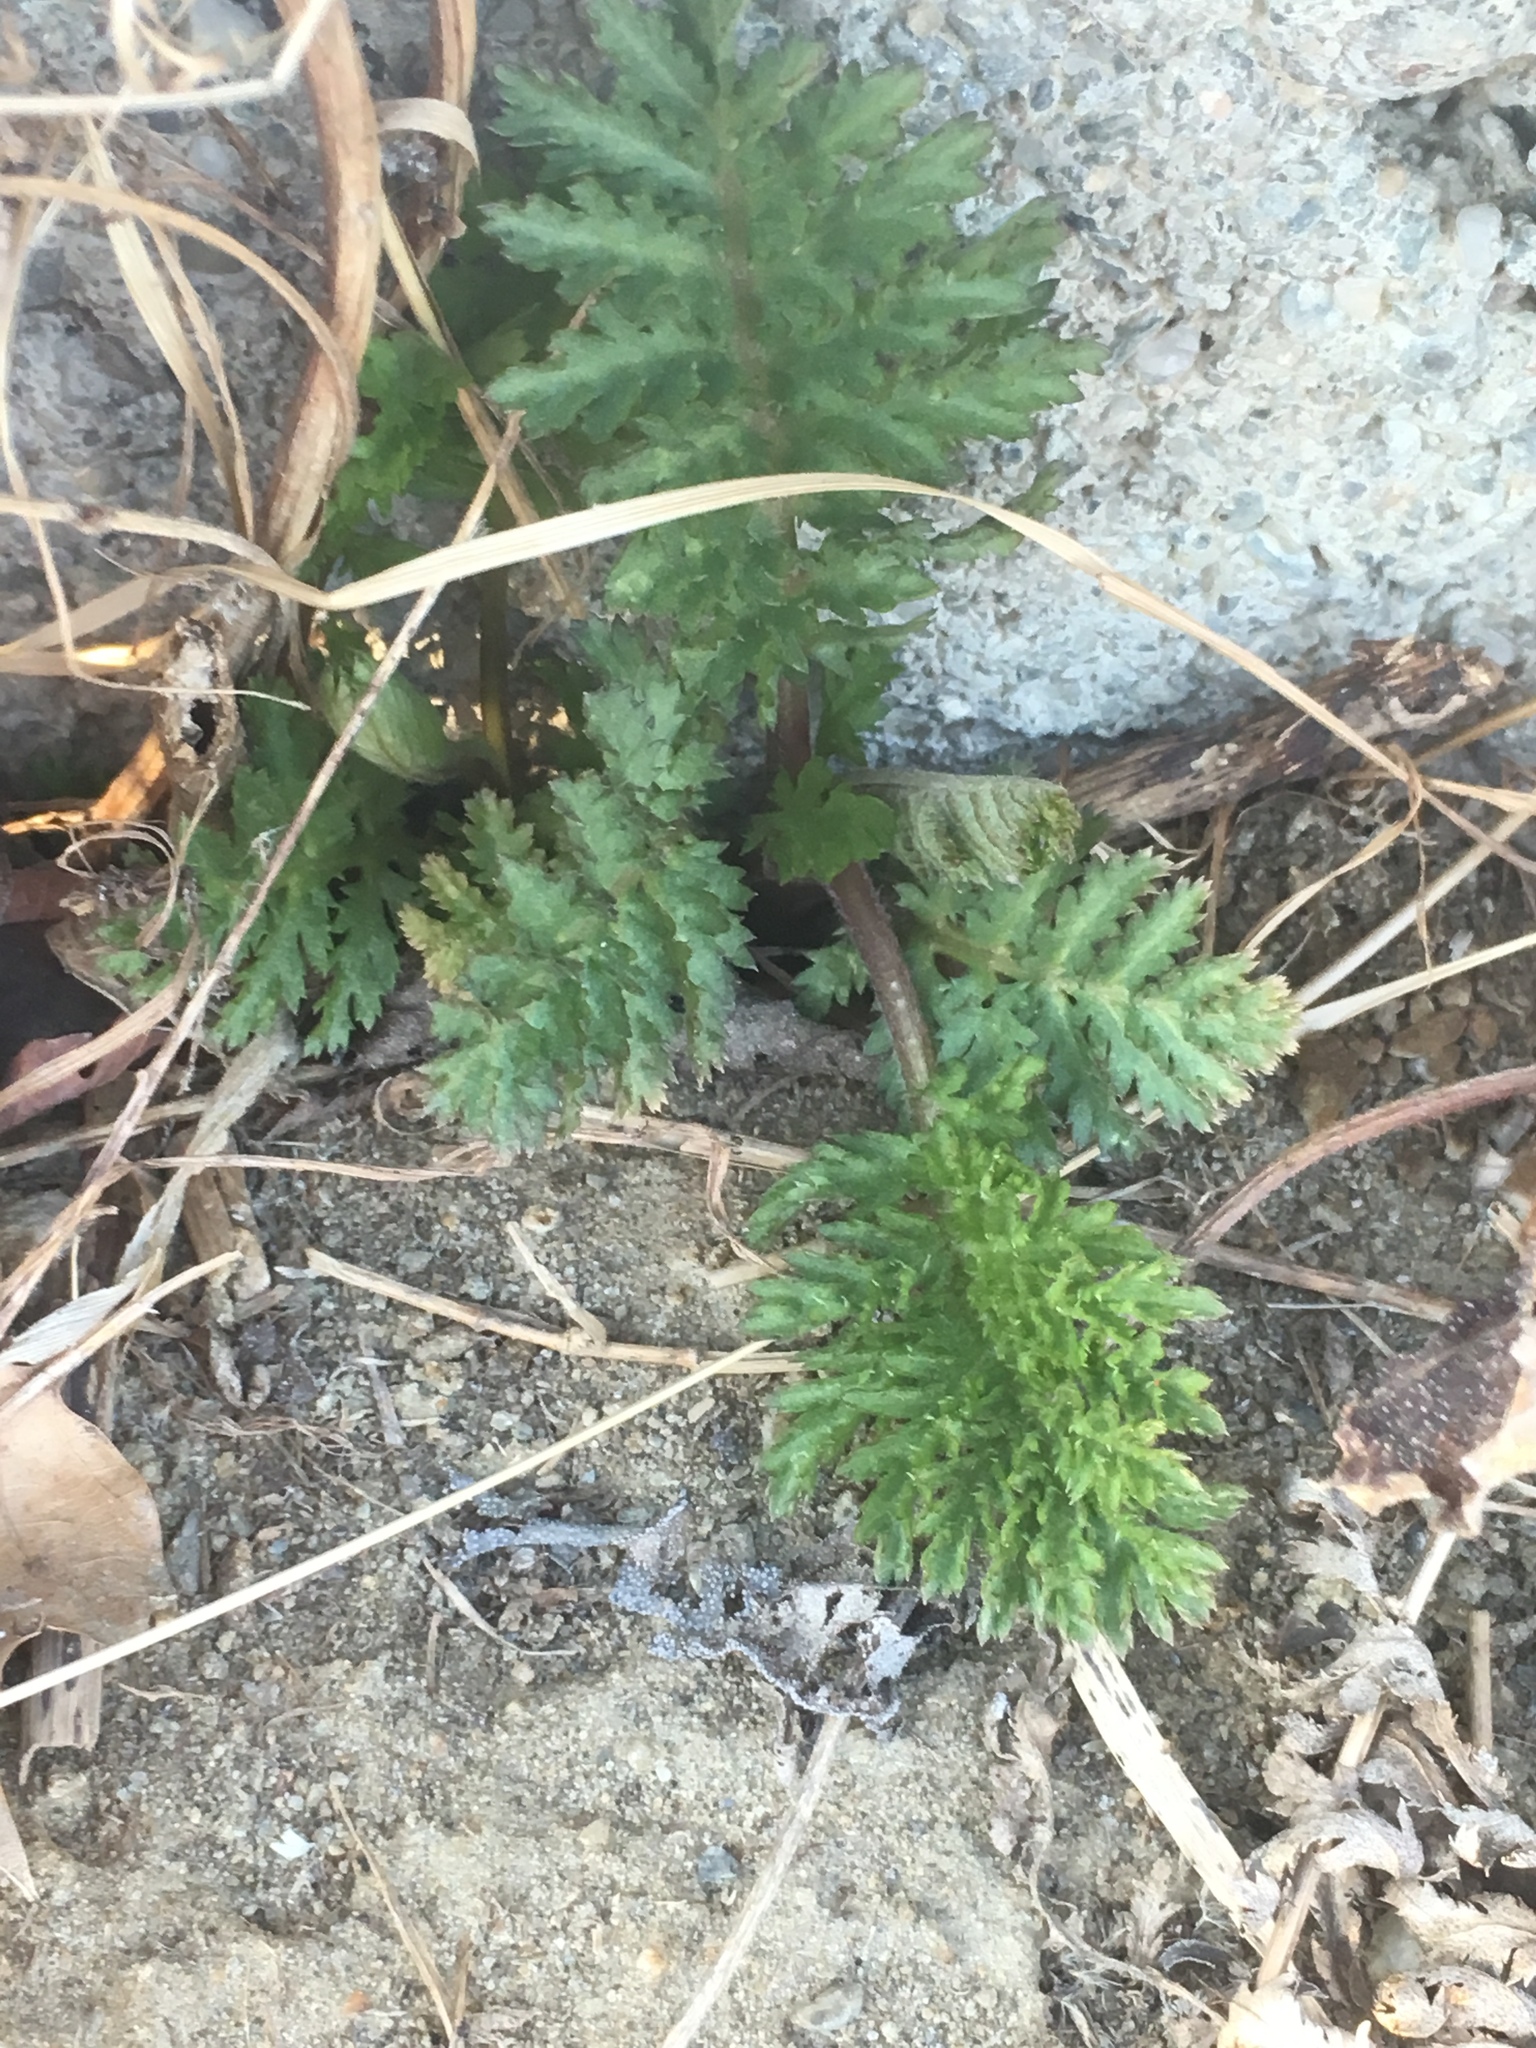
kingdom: Plantae
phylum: Tracheophyta
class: Magnoliopsida
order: Asterales
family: Asteraceae
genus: Tanacetum
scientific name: Tanacetum vulgare
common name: Common tansy
